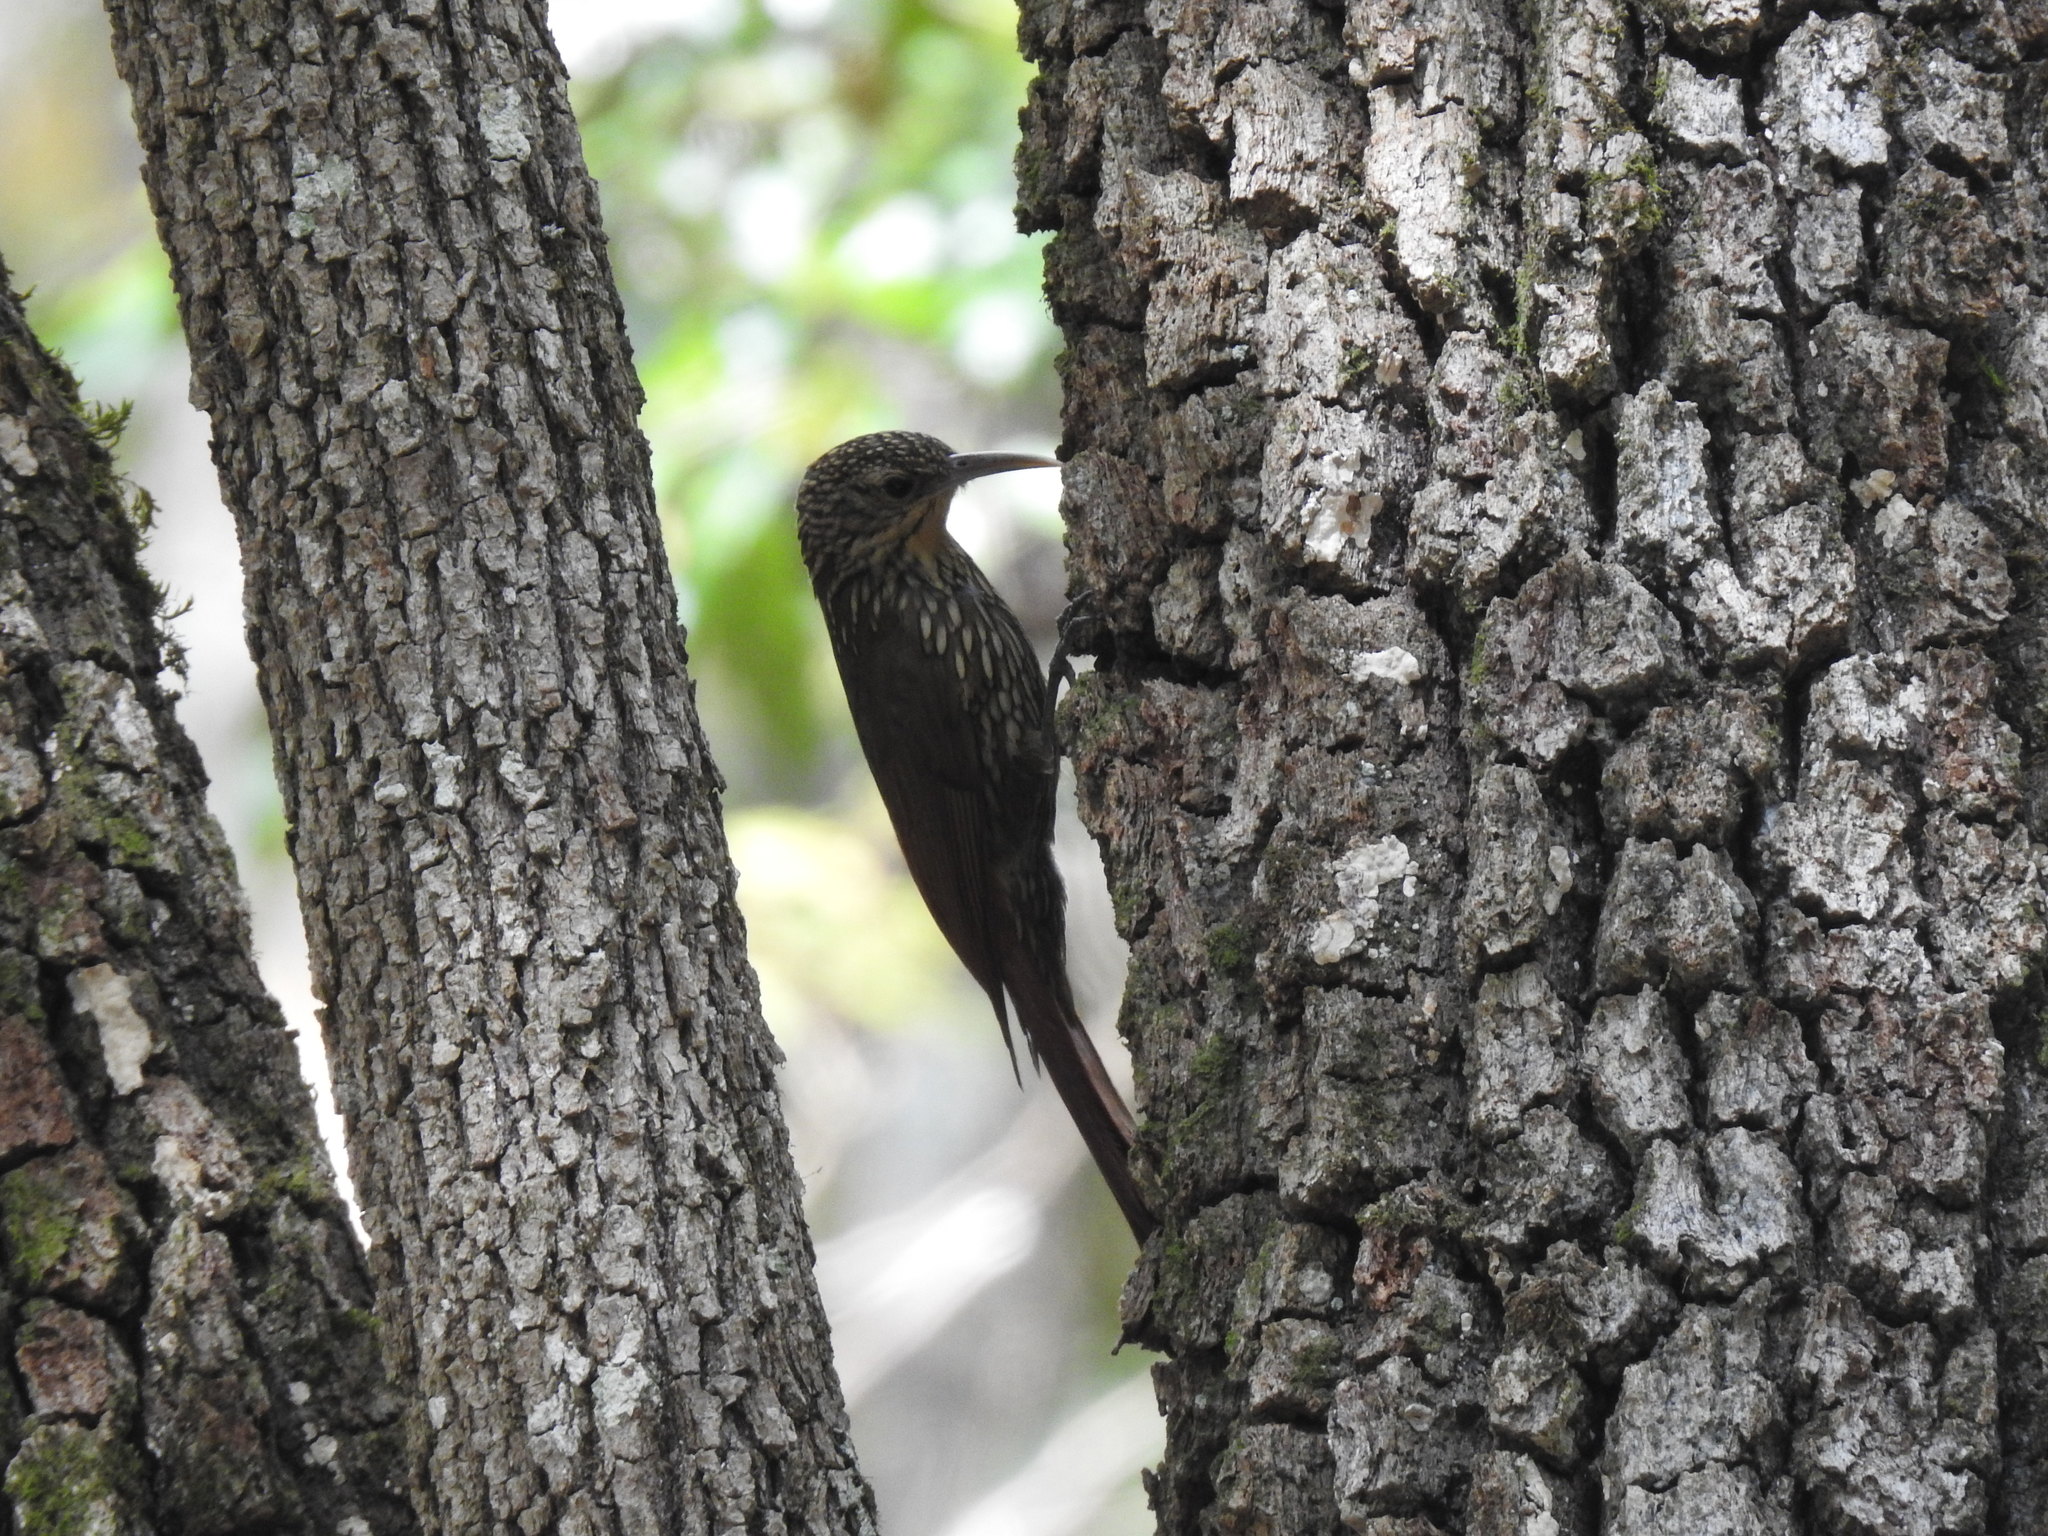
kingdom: Animalia
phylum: Chordata
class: Aves
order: Passeriformes
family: Furnariidae
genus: Lepidocolaptes
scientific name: Lepidocolaptes affinis
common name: Spot-crowned woodcreeper
